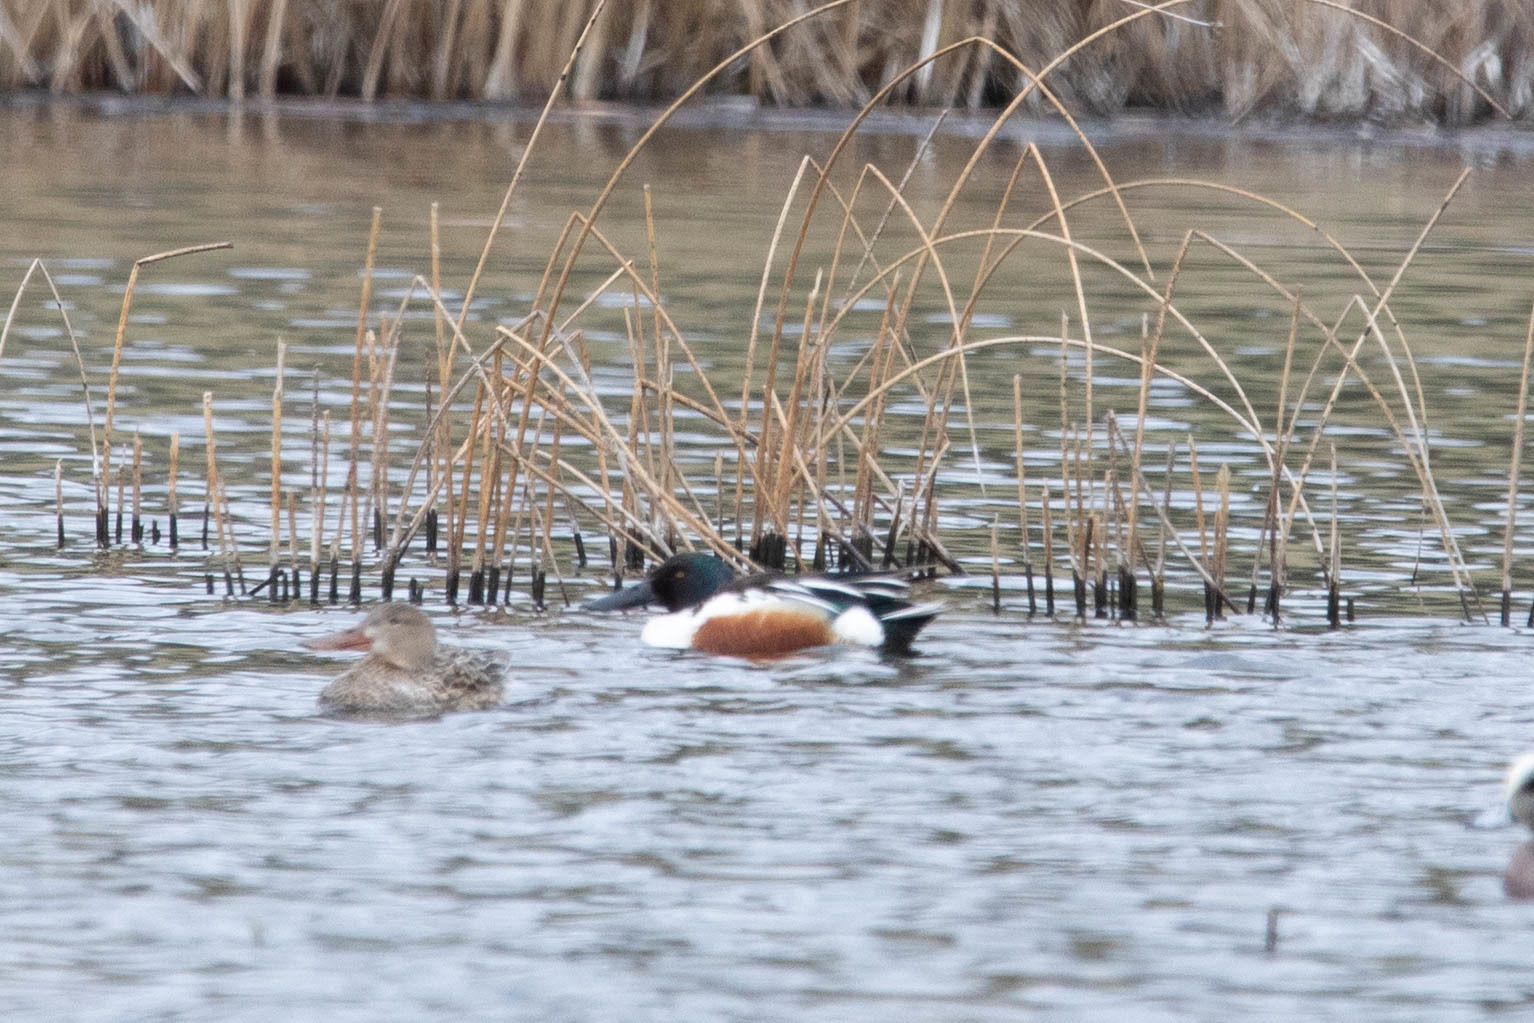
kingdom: Animalia
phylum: Chordata
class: Aves
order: Anseriformes
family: Anatidae
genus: Spatula
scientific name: Spatula clypeata
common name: Northern shoveler
